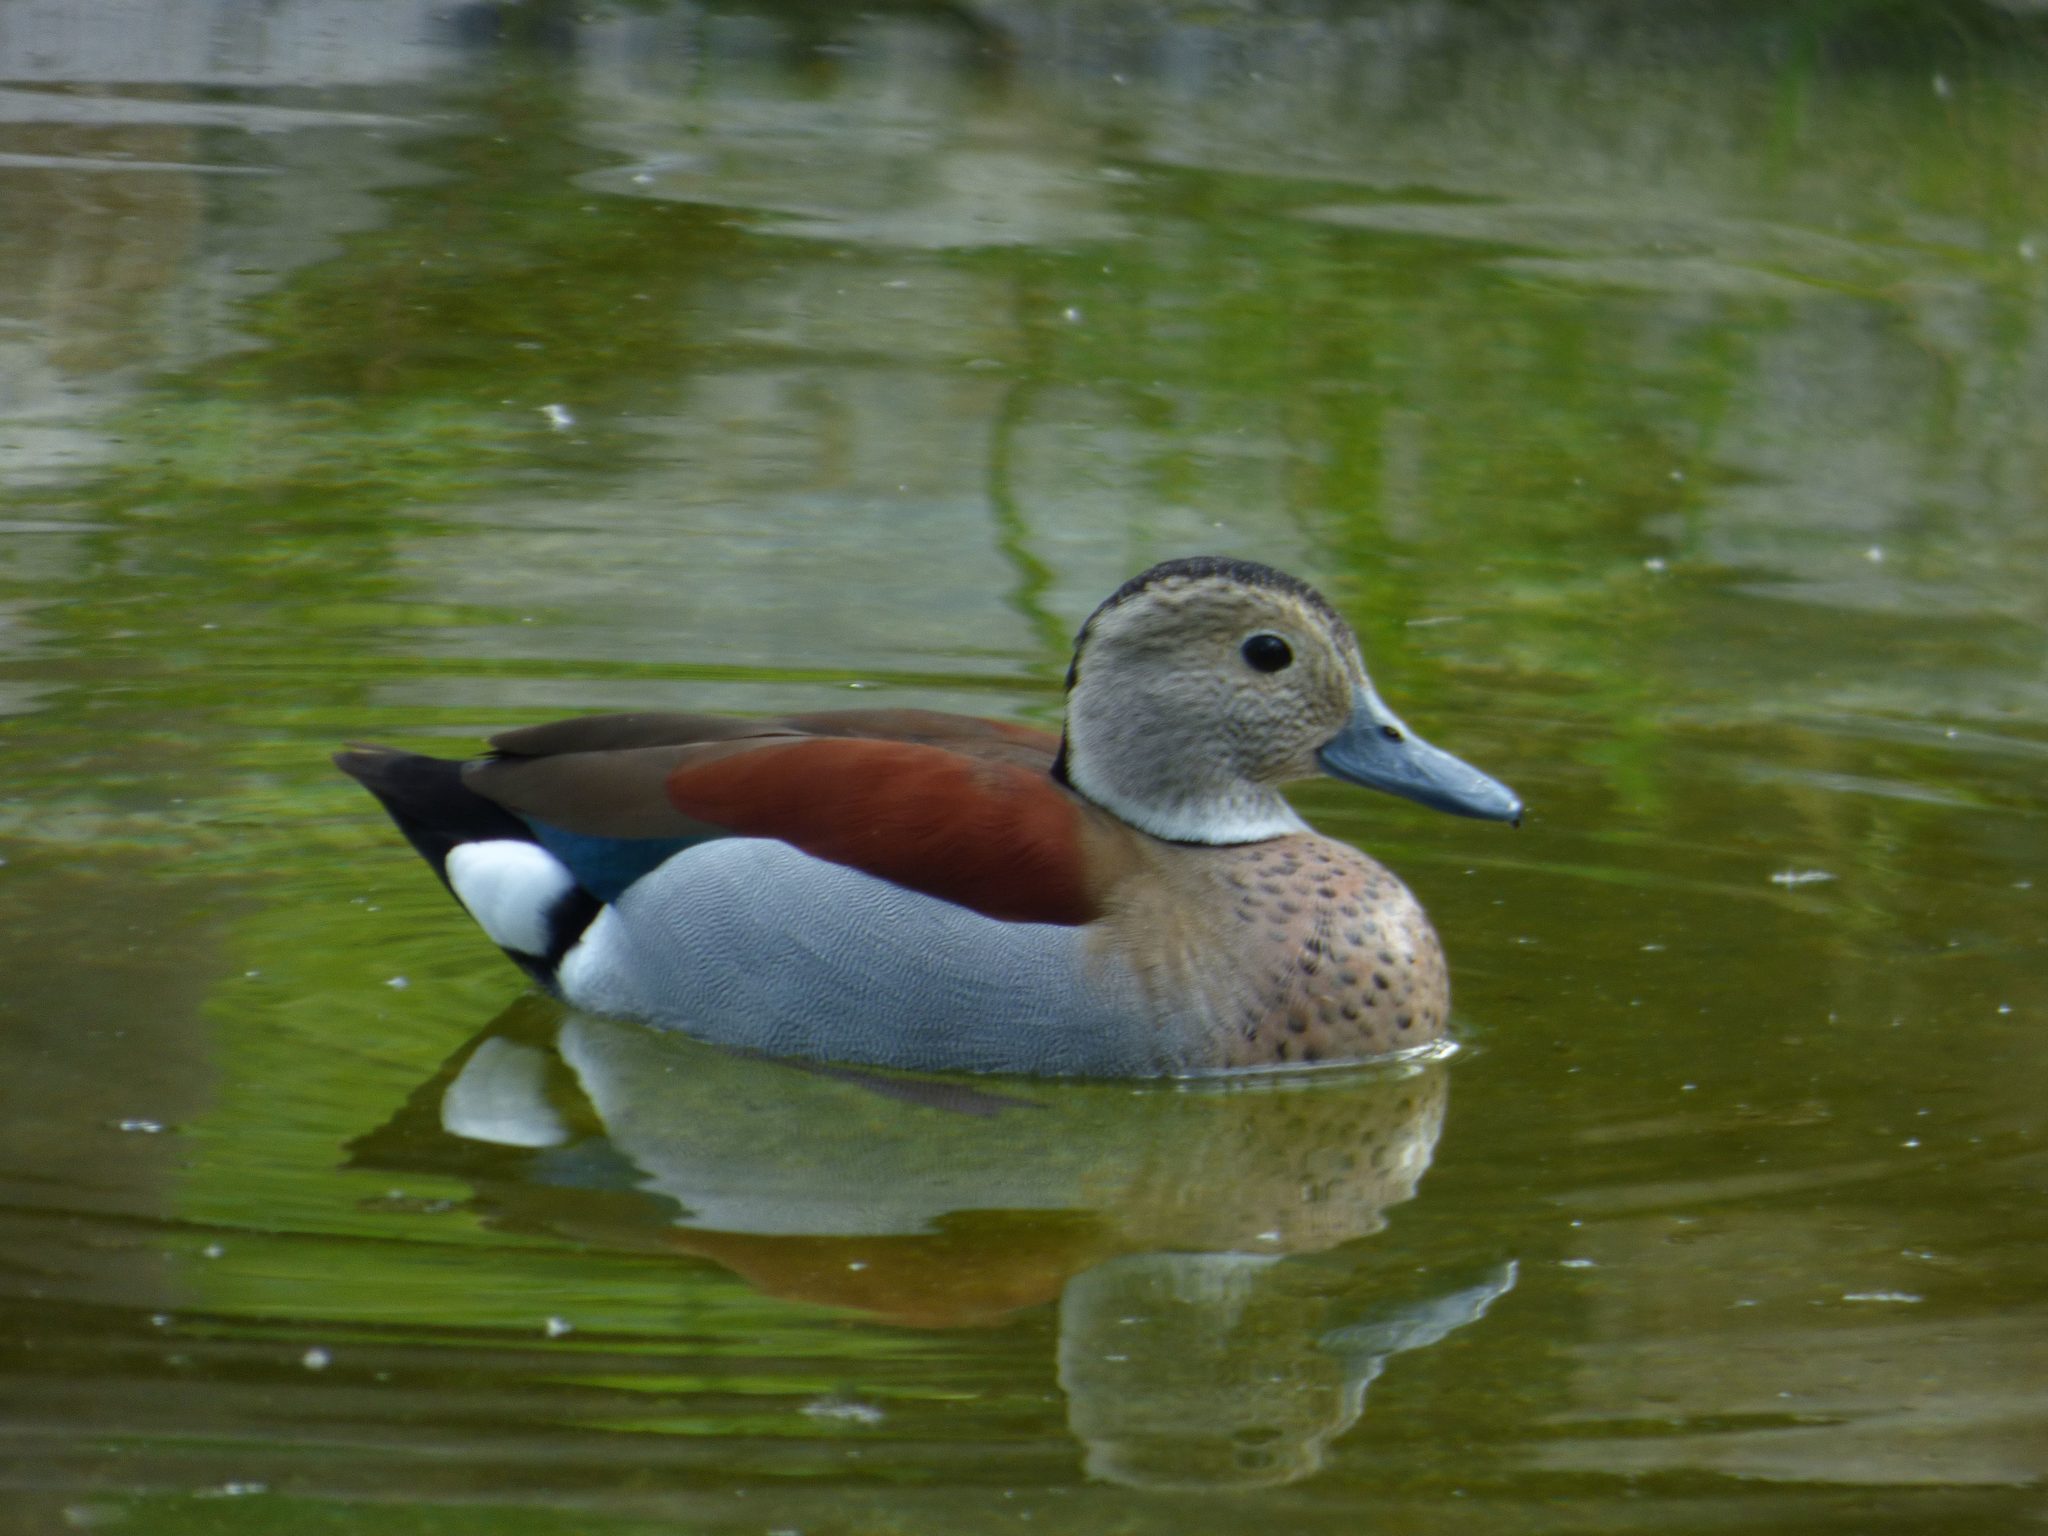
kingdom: Animalia
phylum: Chordata
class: Aves
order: Anseriformes
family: Anatidae
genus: Callonetta
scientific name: Callonetta leucophrys
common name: Ringed teal
